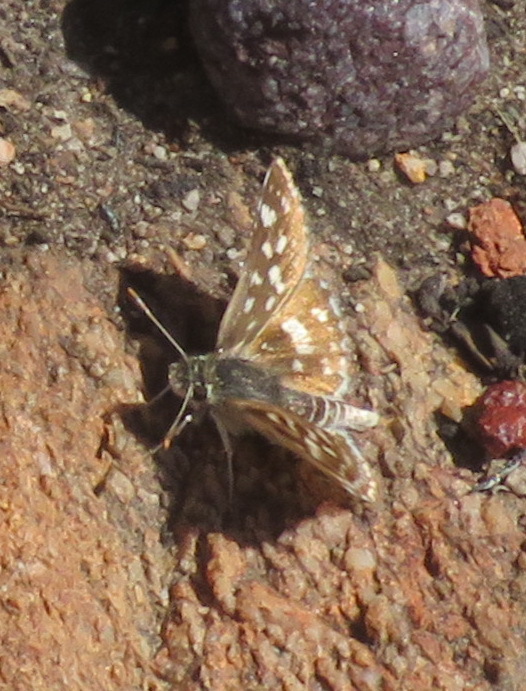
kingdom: Animalia
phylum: Arthropoda
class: Insecta
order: Lepidoptera
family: Hesperiidae
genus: Spialia
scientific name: Spialia mafa
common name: Mafa sandman
